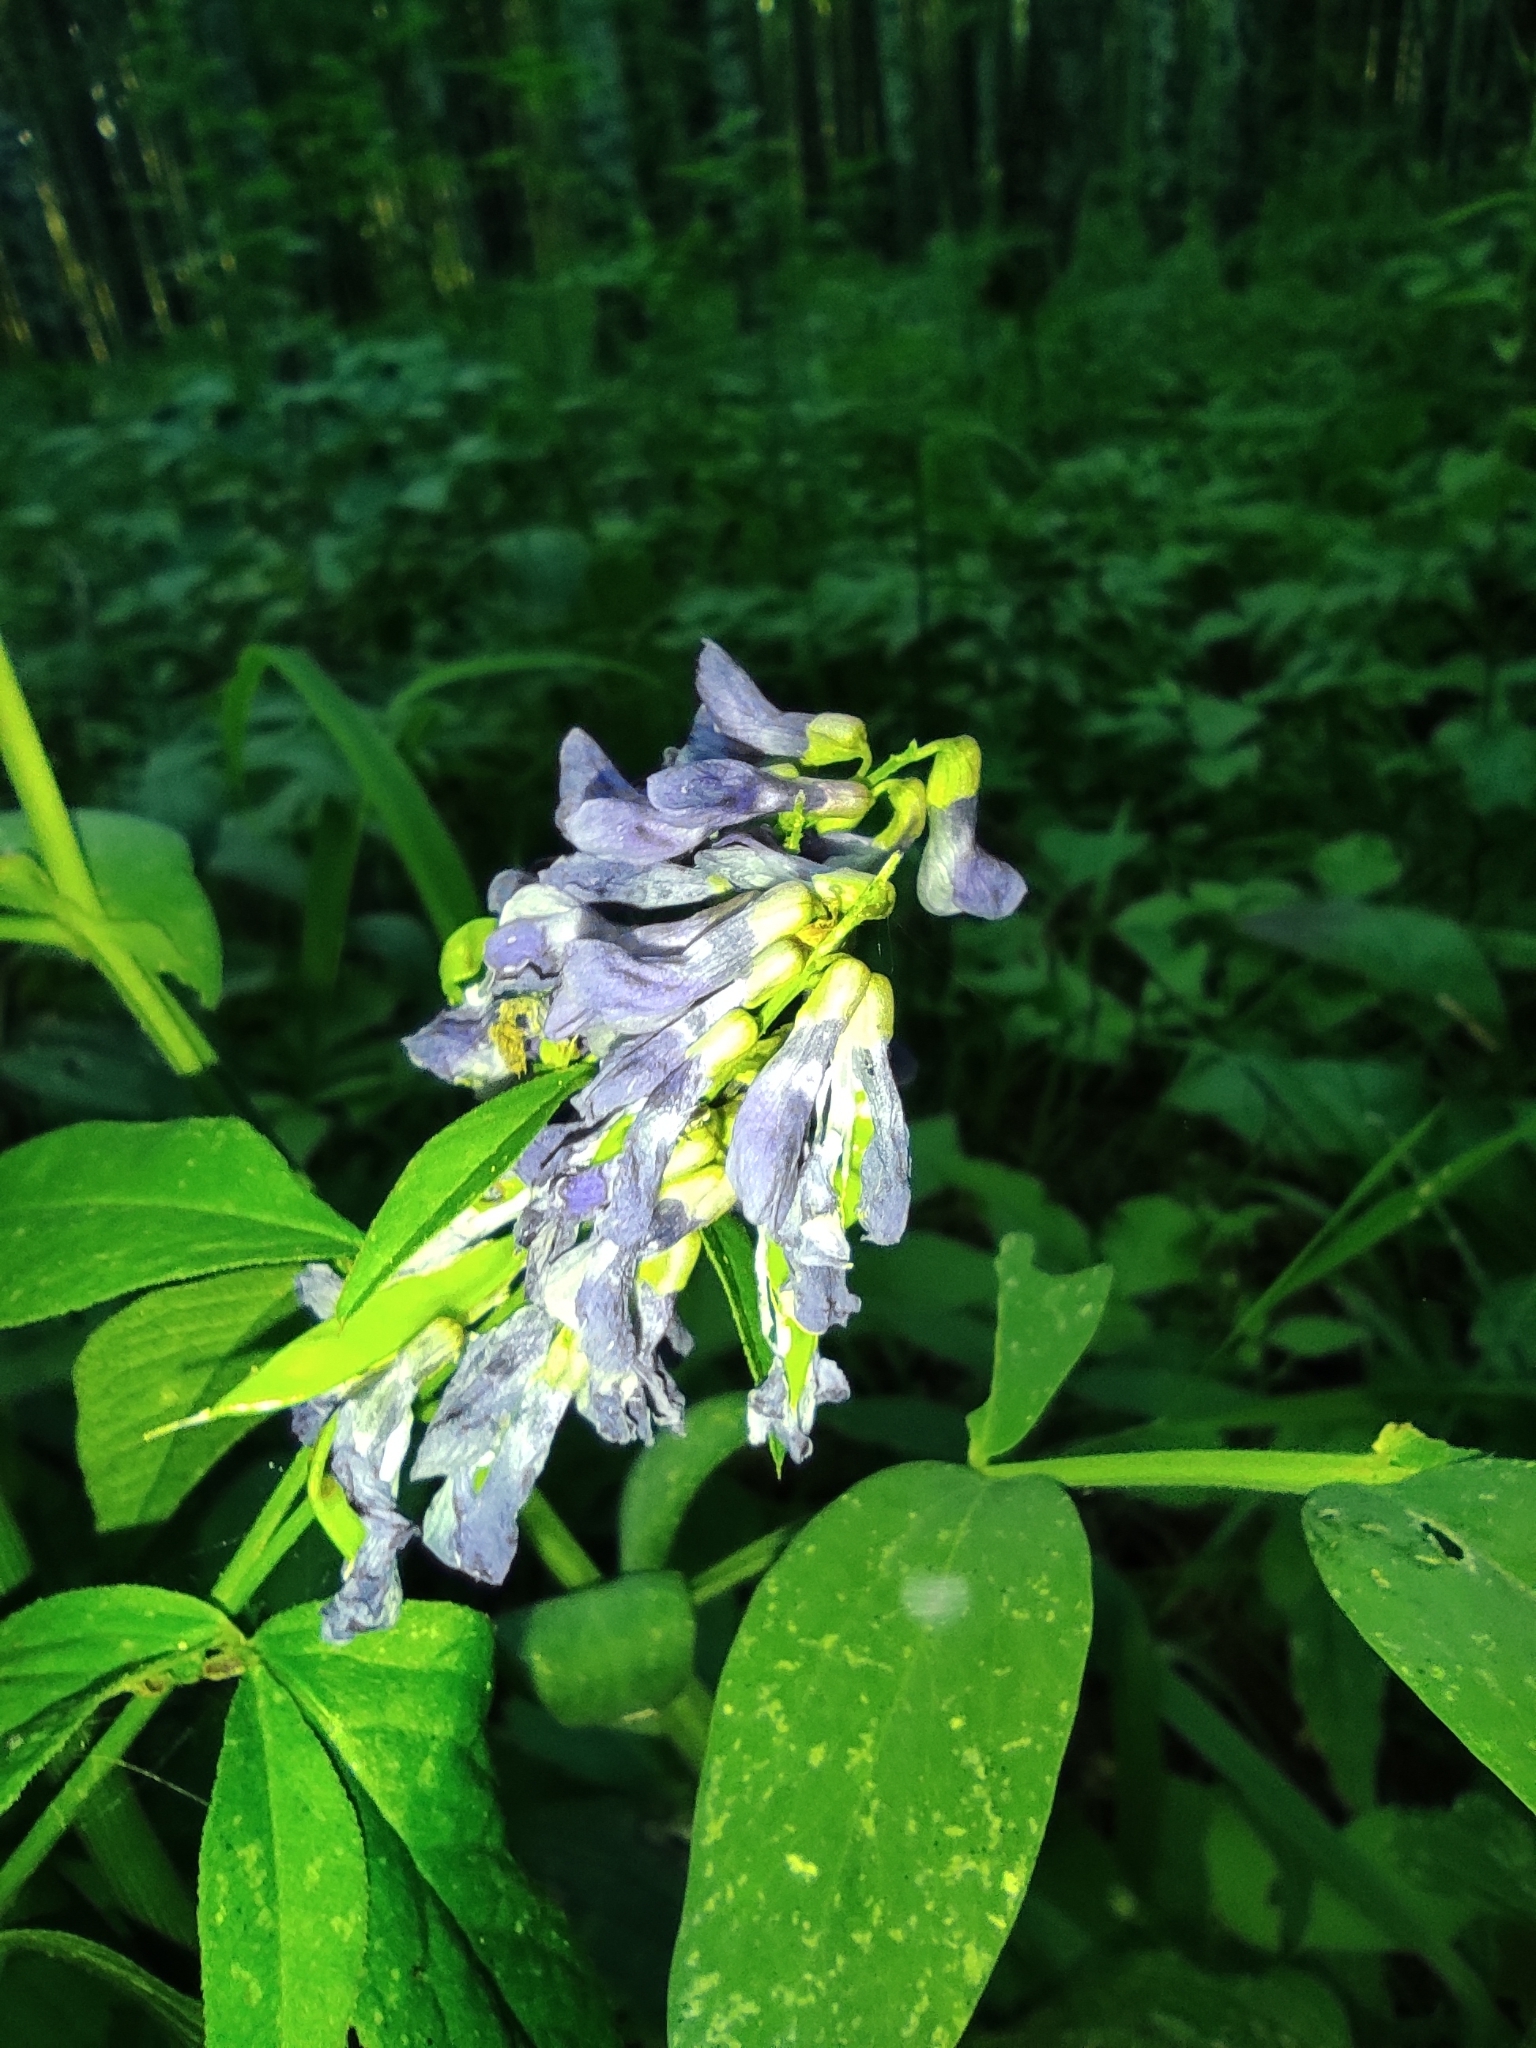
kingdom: Plantae
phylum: Tracheophyta
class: Magnoliopsida
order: Fabales
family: Fabaceae
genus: Vicia
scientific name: Vicia unijuga
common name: Two-leaf vetch
